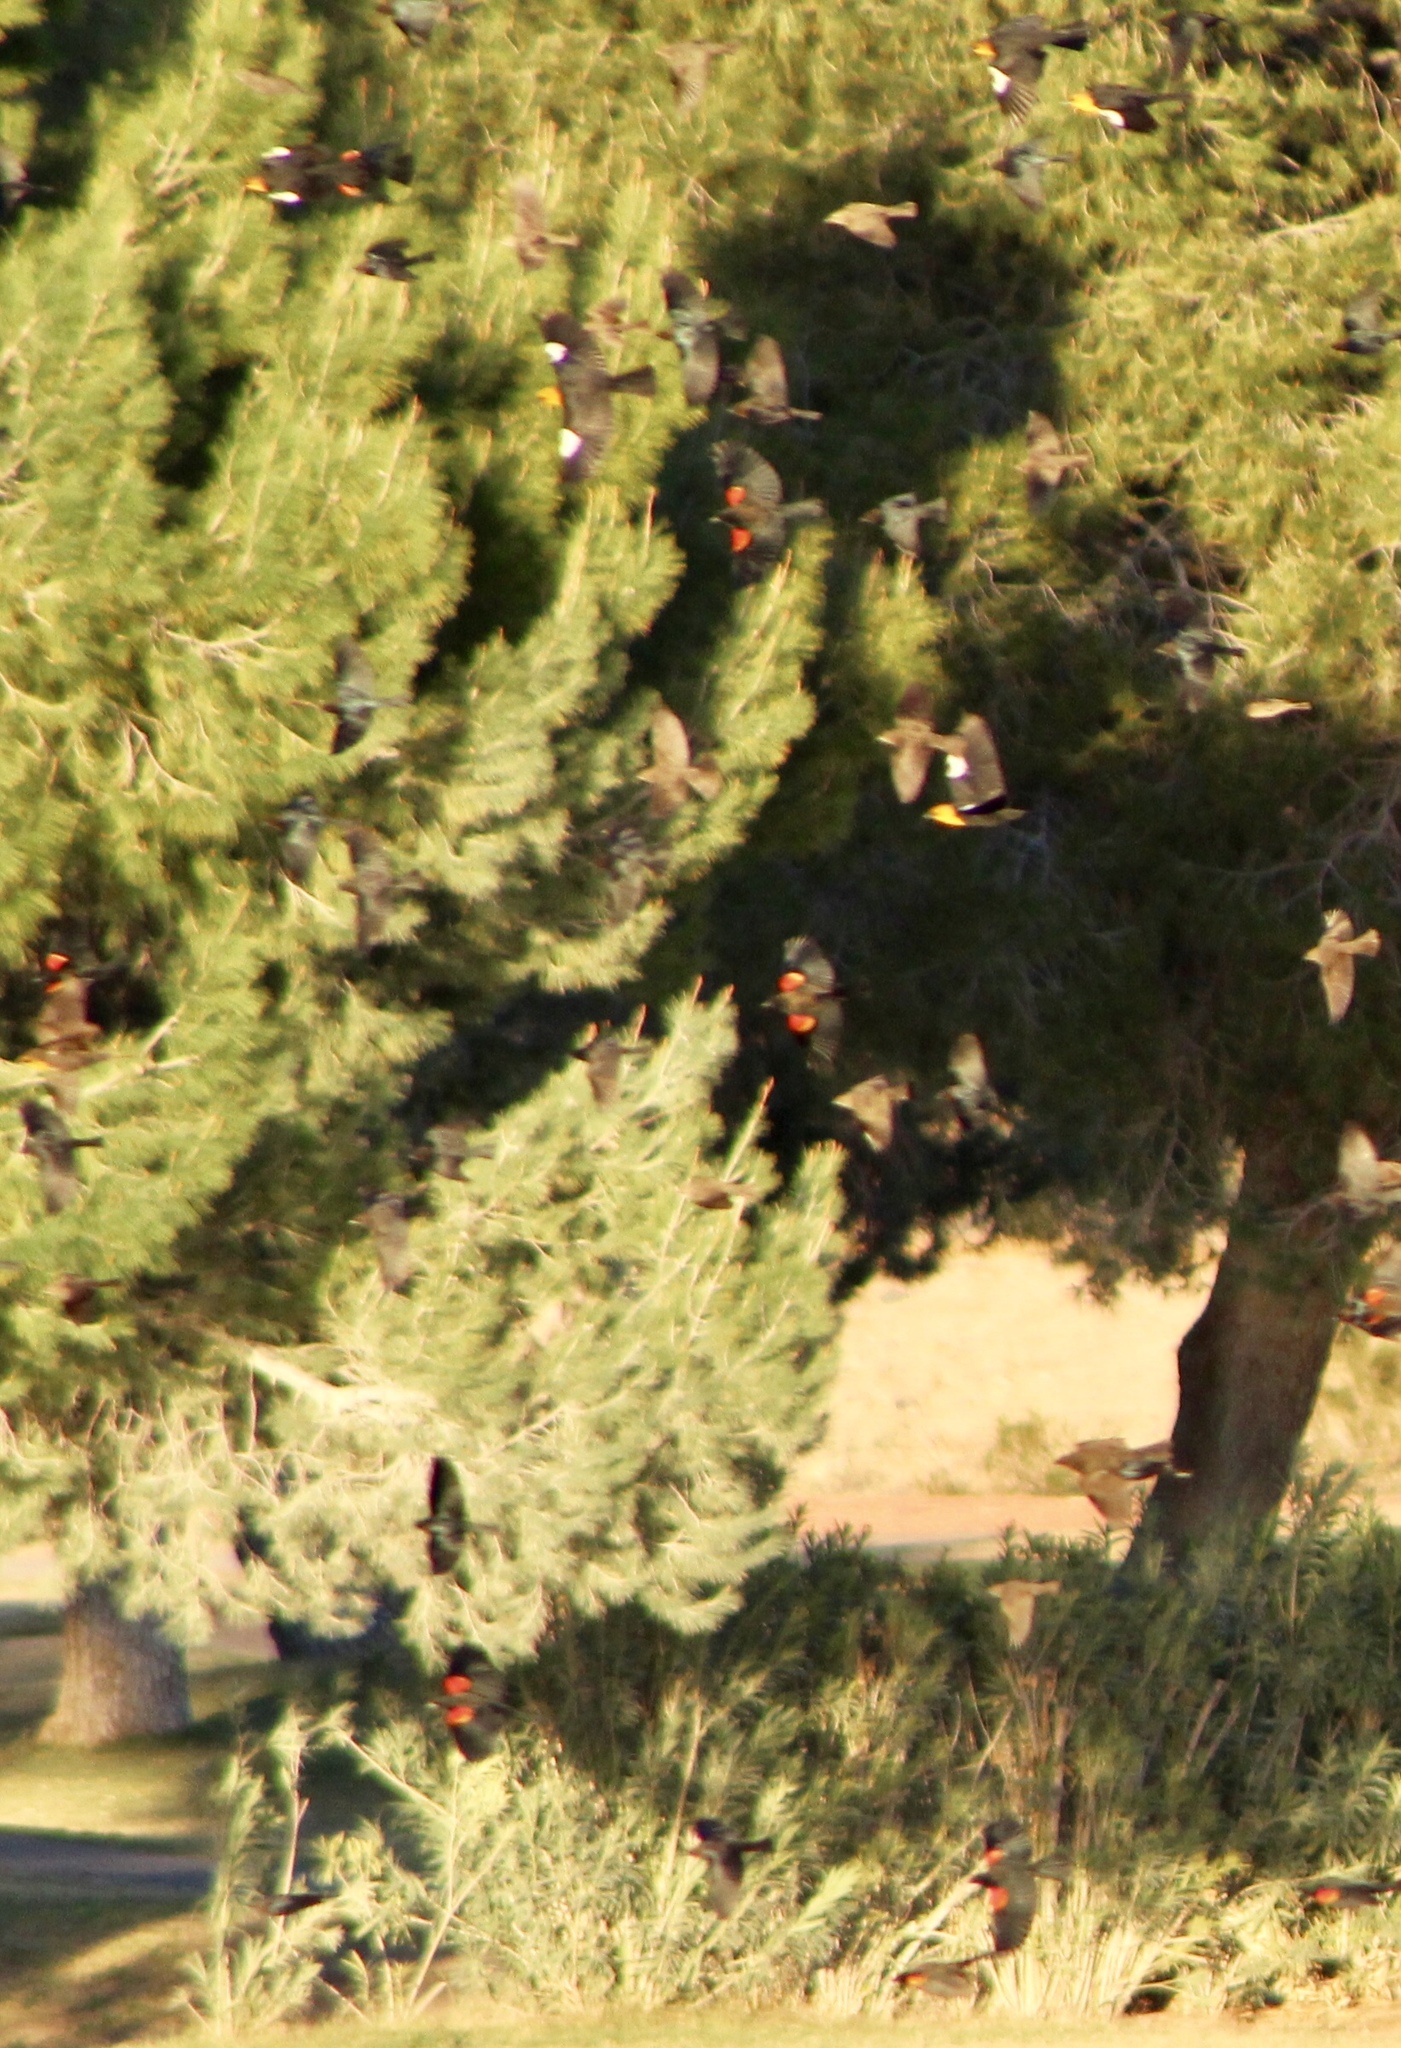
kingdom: Animalia
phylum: Chordata
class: Aves
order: Passeriformes
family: Icteridae
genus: Agelaius
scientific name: Agelaius phoeniceus
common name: Red-winged blackbird
